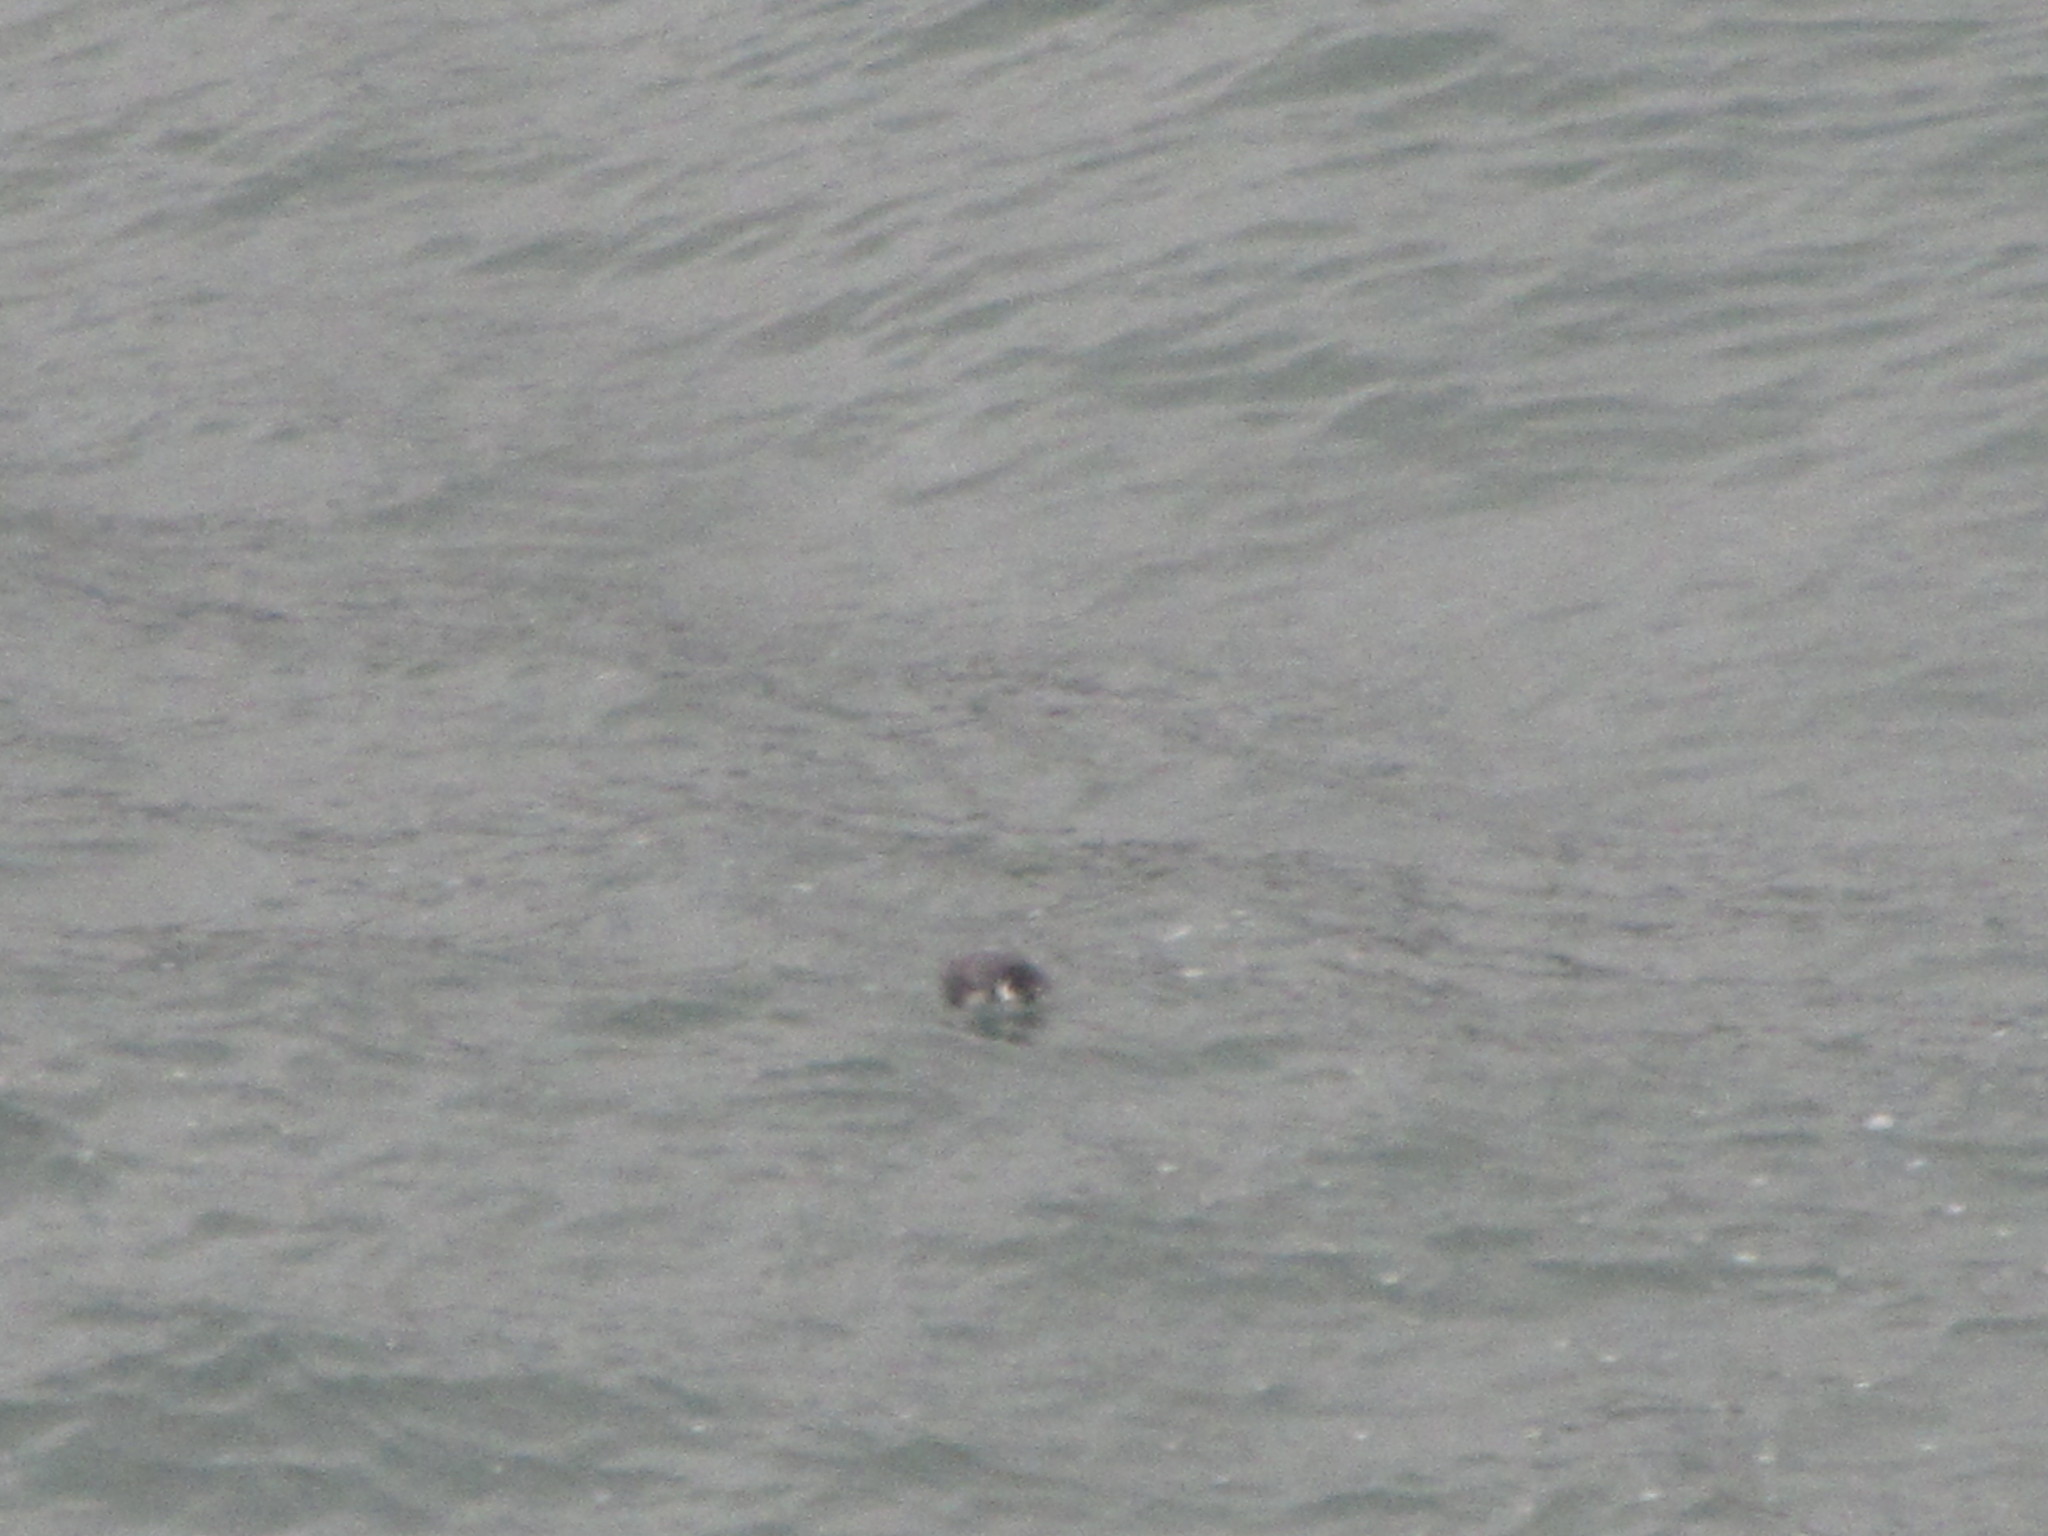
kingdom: Animalia
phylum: Chordata
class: Aves
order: Charadriiformes
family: Alcidae
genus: Synthliboramphus
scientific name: Synthliboramphus antiquus
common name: Ancient murrelet
